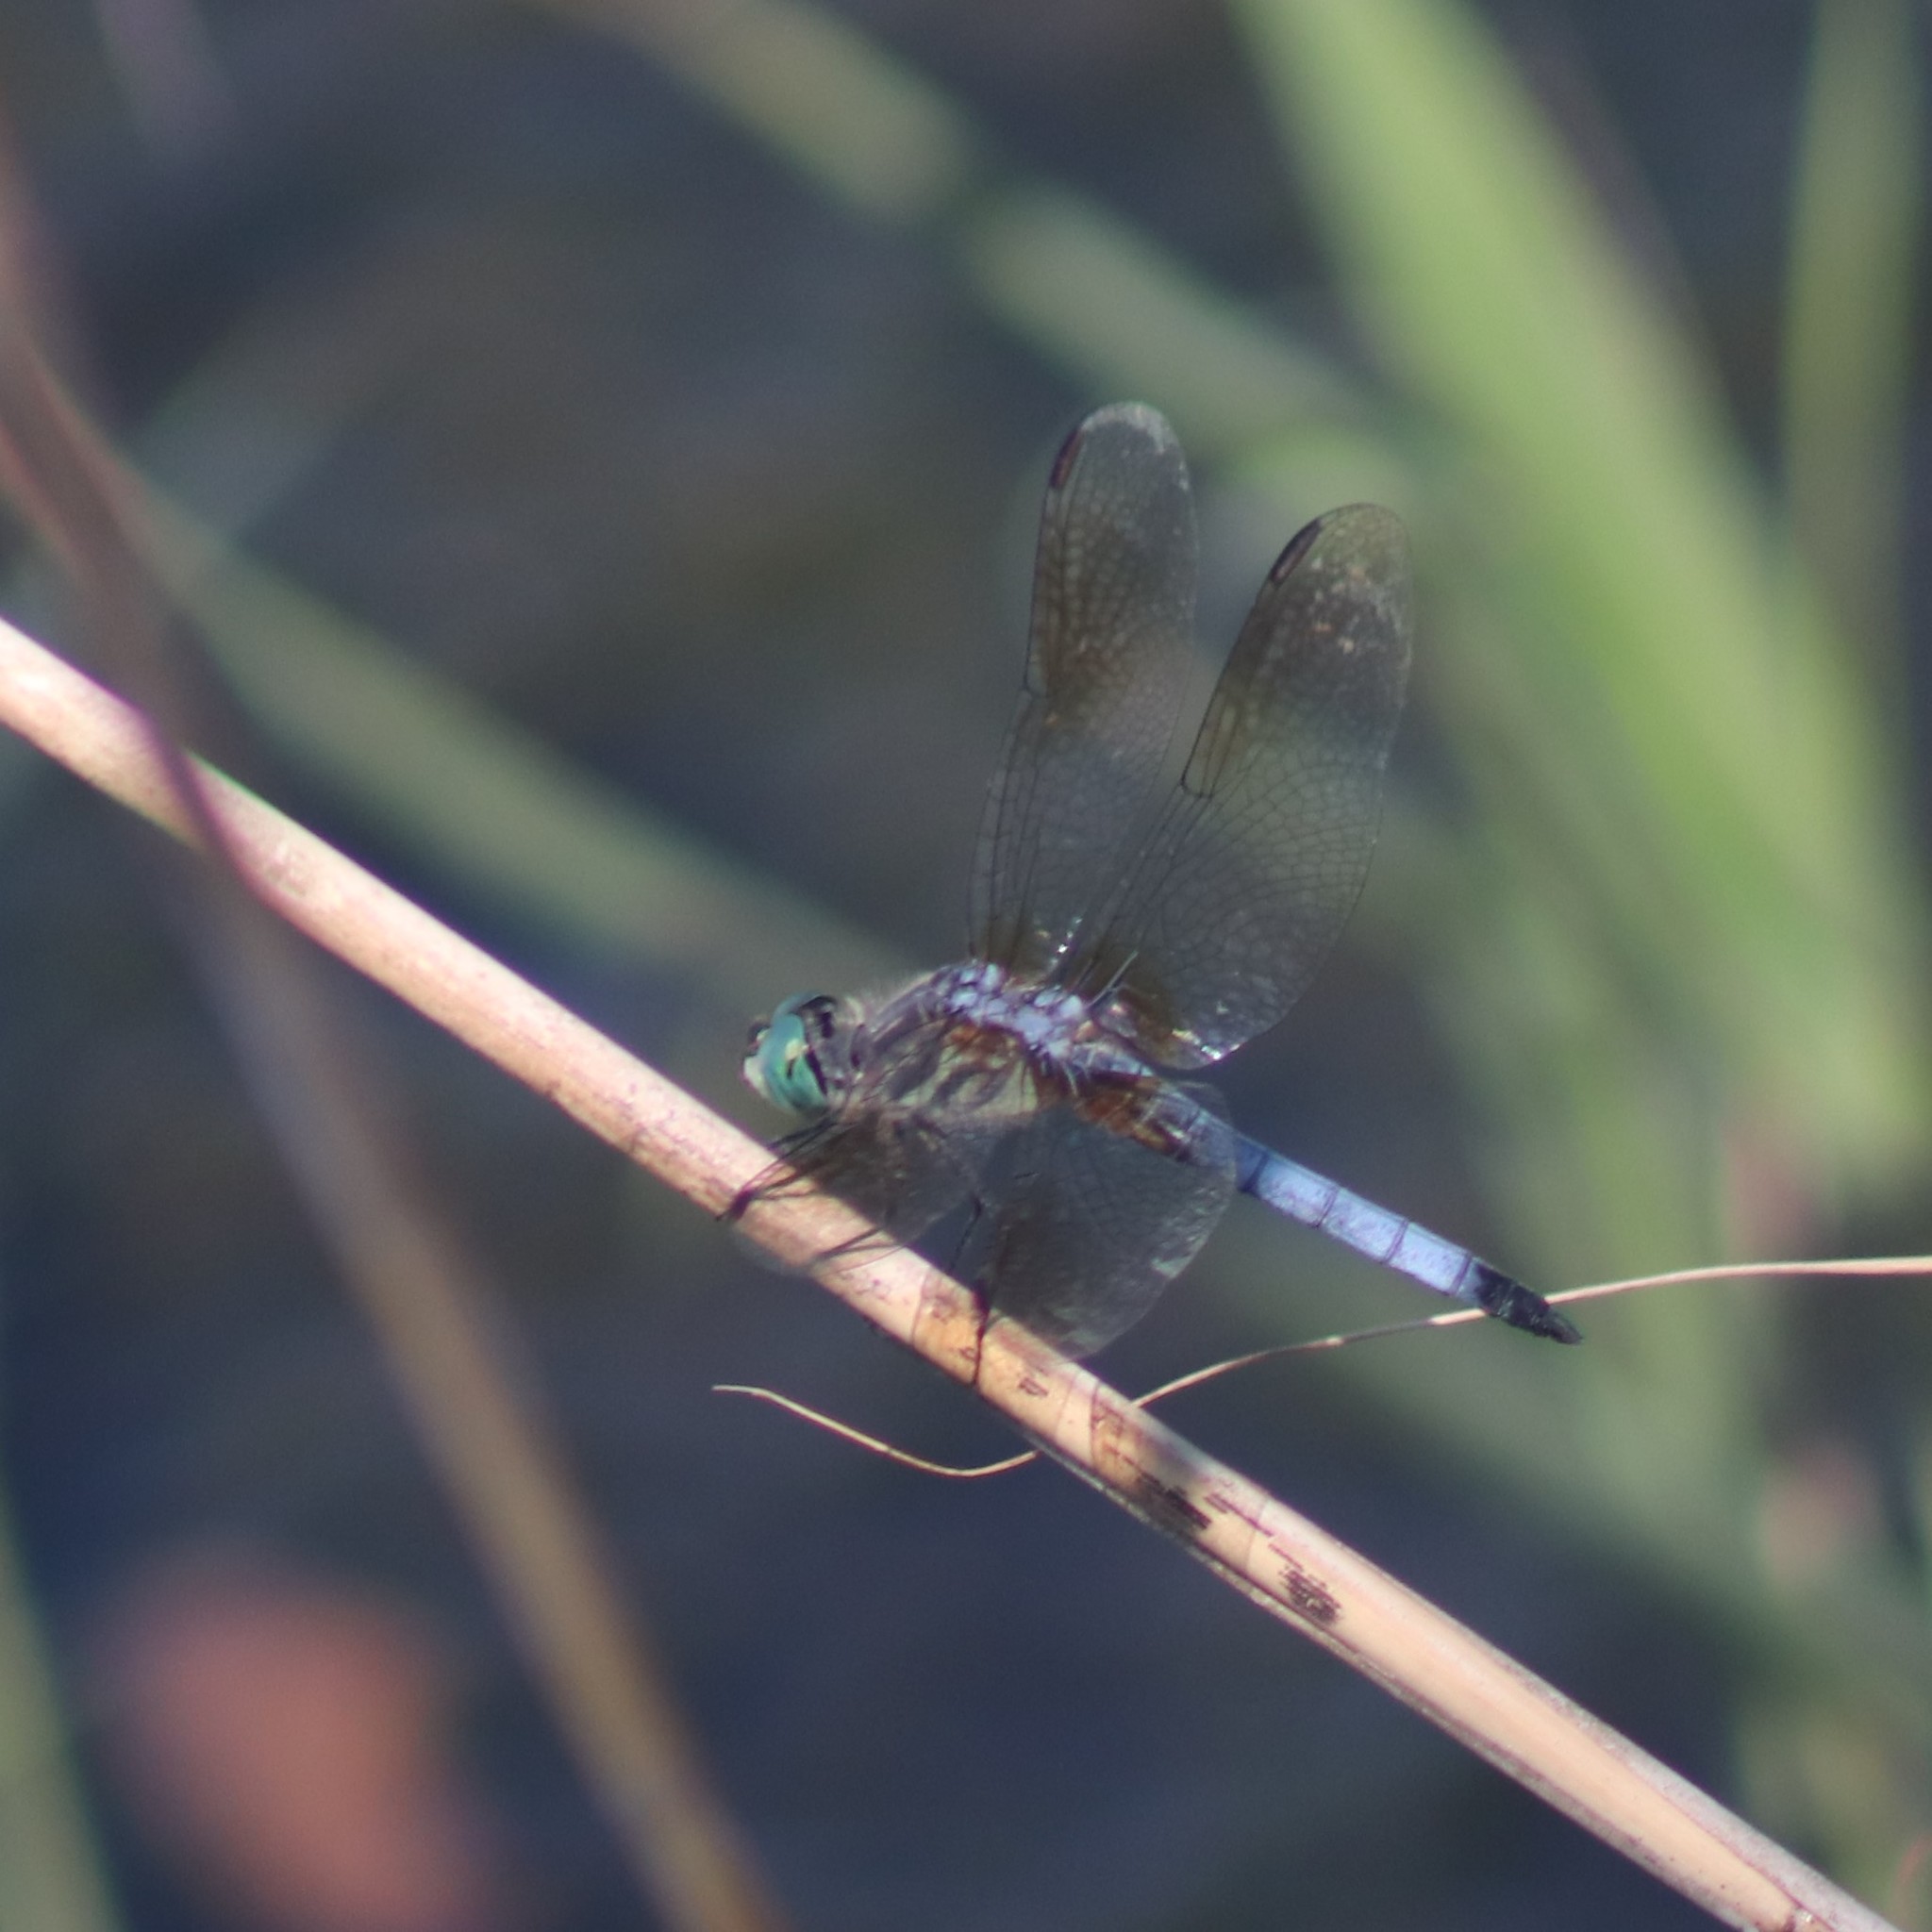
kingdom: Animalia
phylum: Arthropoda
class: Insecta
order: Odonata
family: Libellulidae
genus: Pachydiplax
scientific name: Pachydiplax longipennis
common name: Blue dasher
